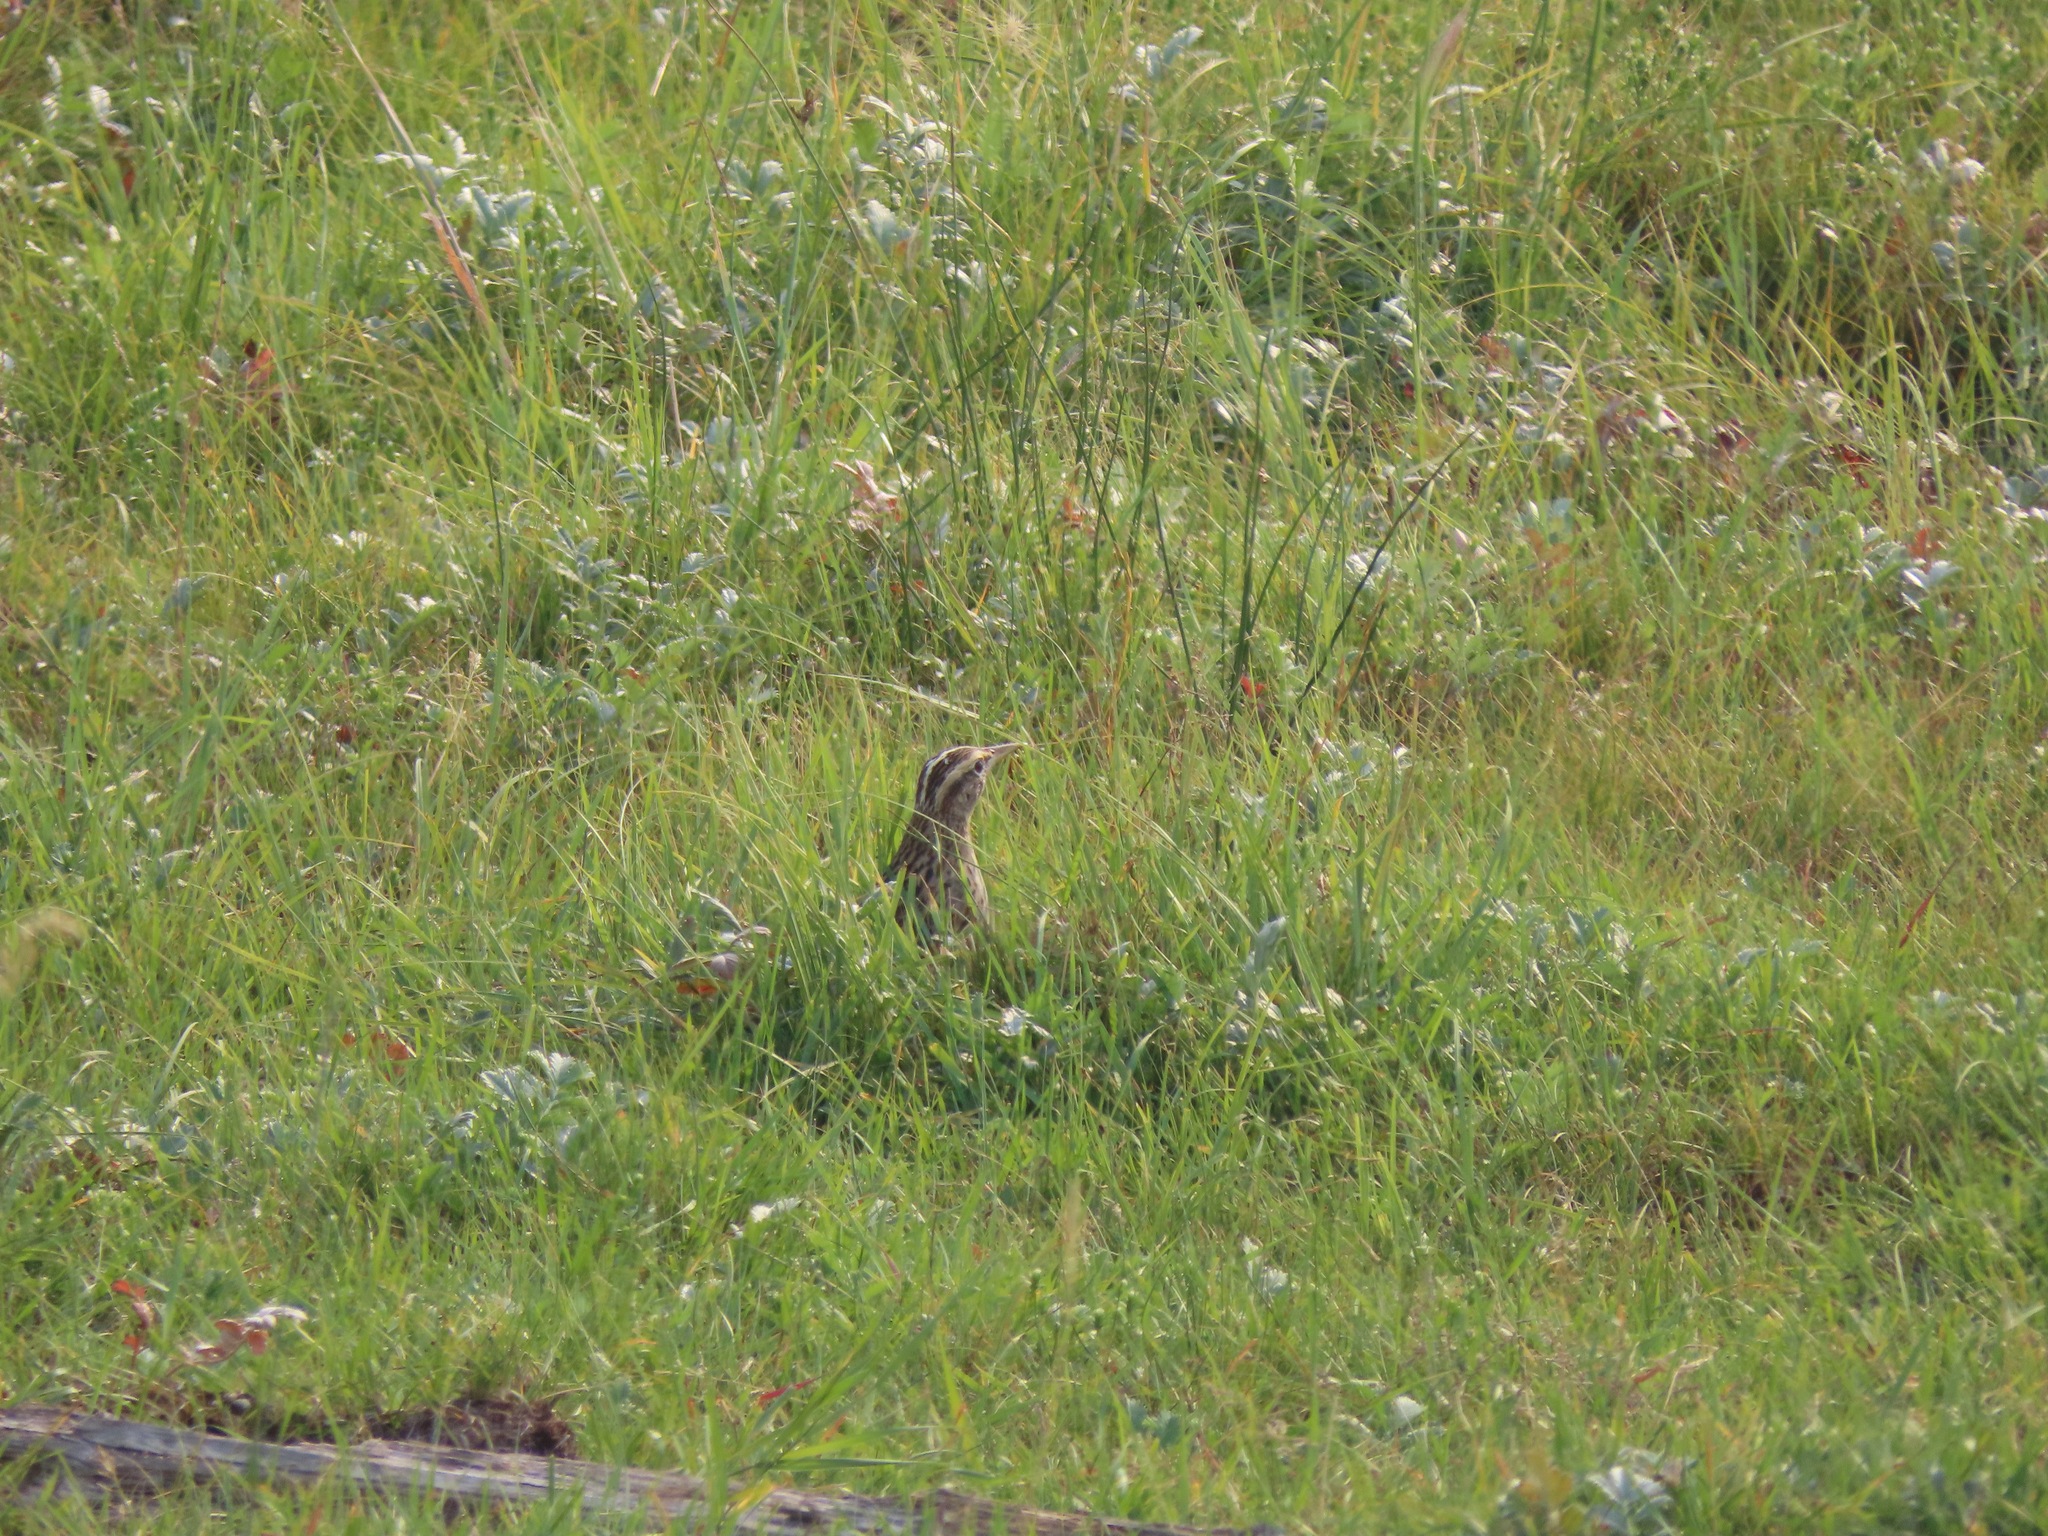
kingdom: Animalia
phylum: Chordata
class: Aves
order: Passeriformes
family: Icteridae
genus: Sturnella
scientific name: Sturnella neglecta
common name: Western meadowlark
